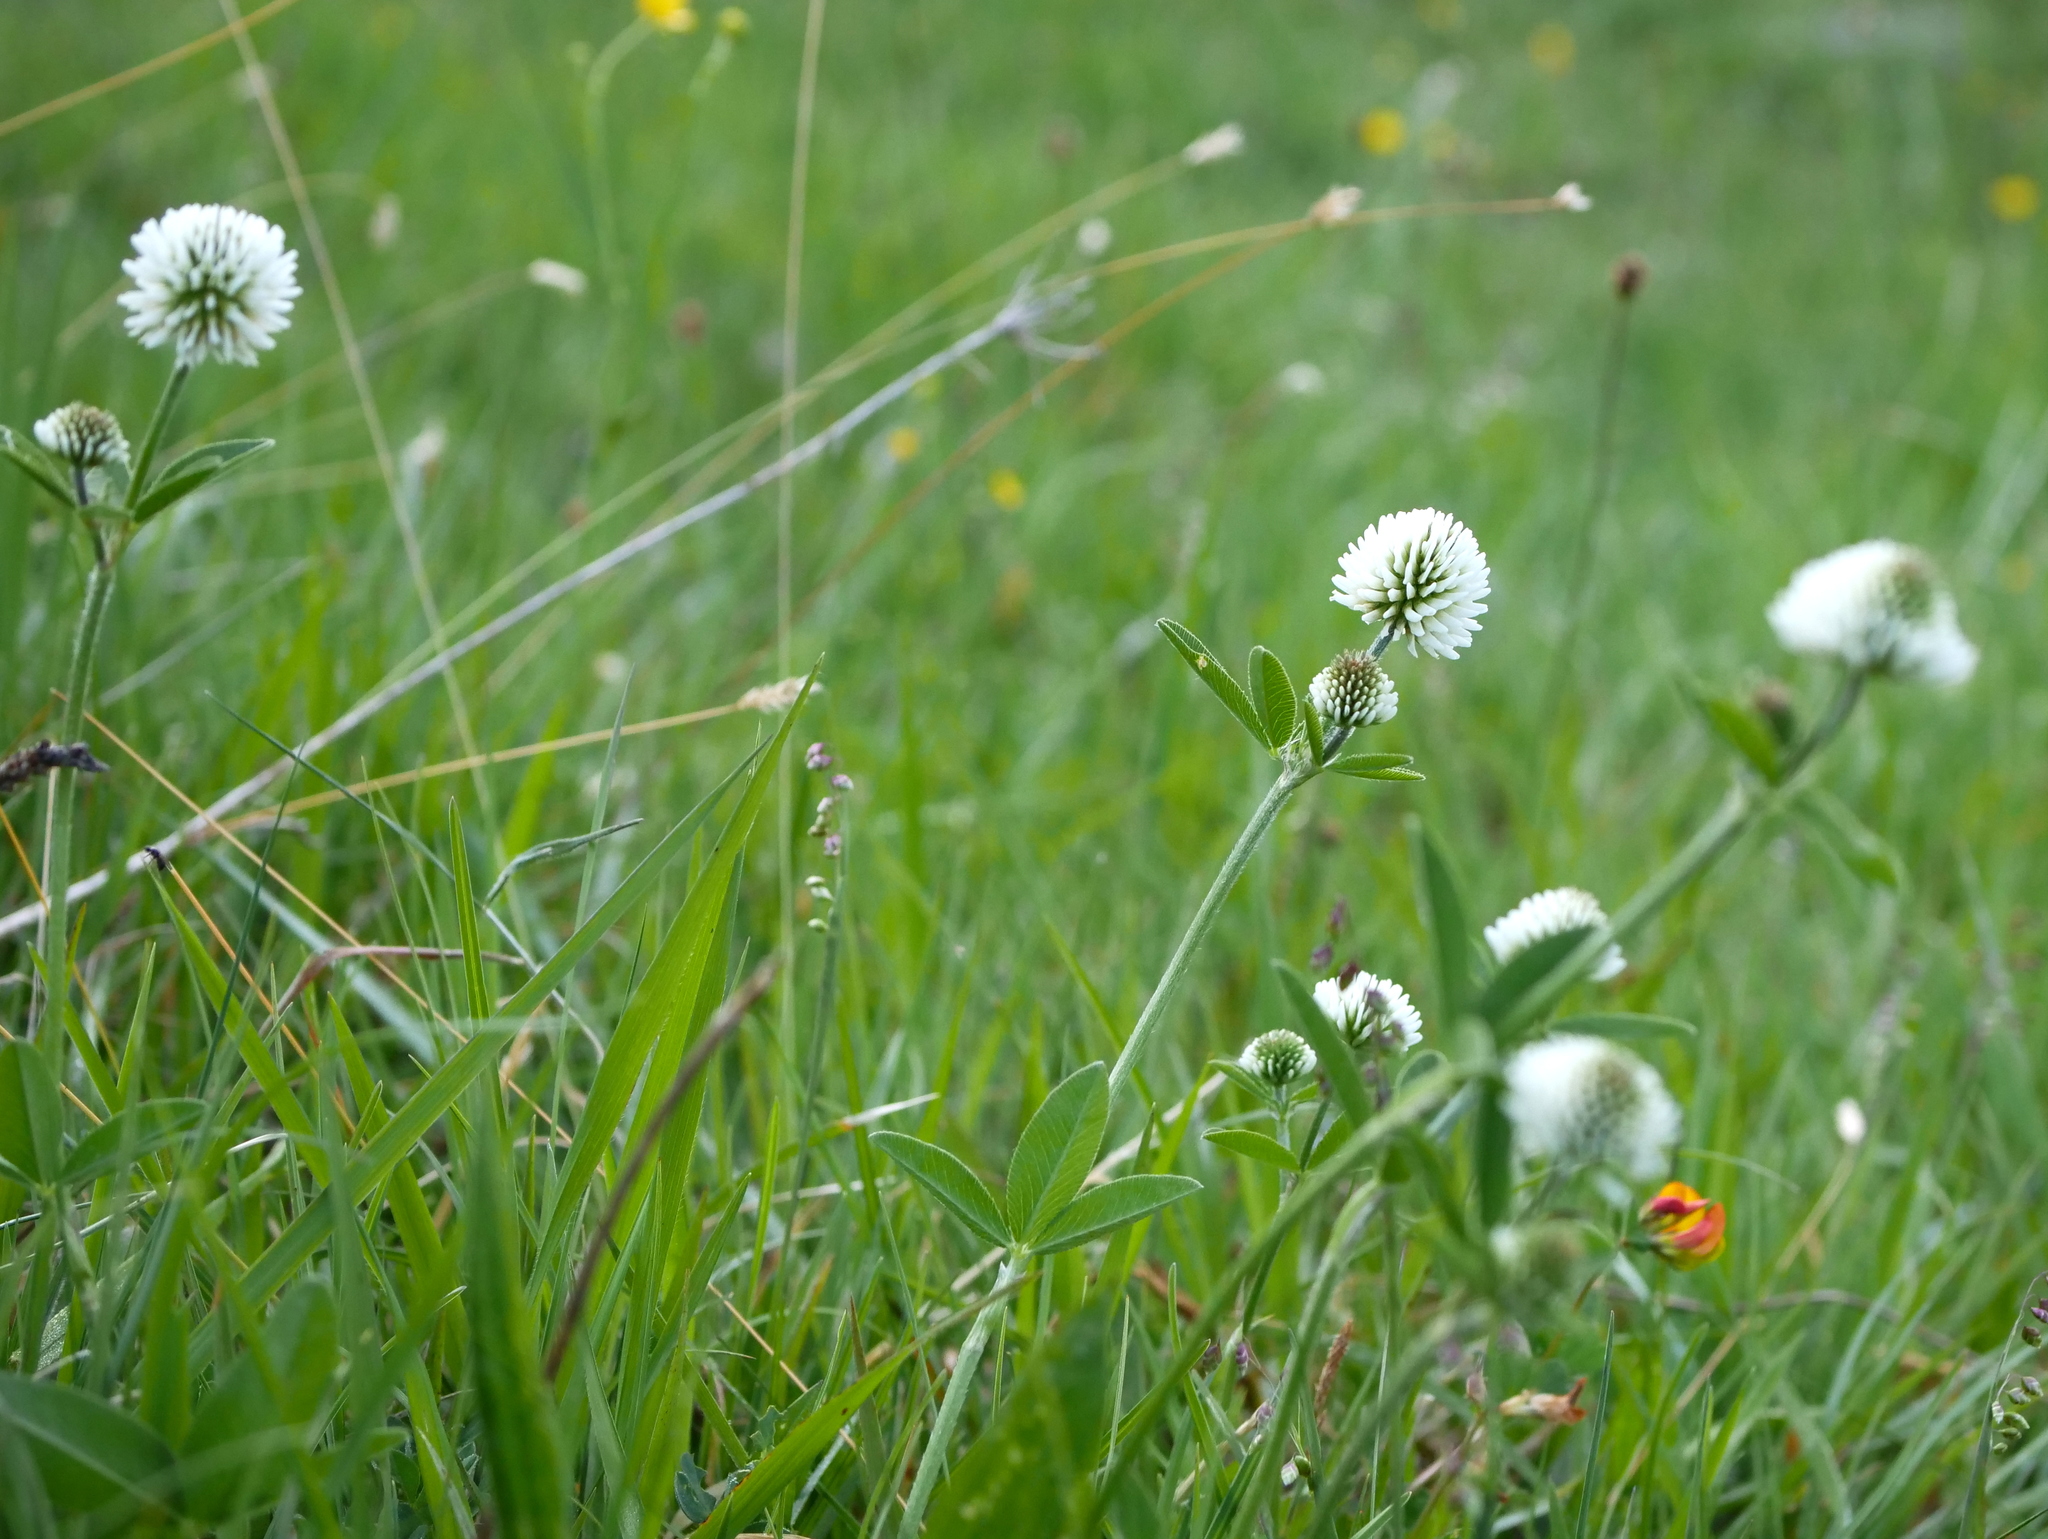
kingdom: Plantae
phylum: Tracheophyta
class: Magnoliopsida
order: Fabales
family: Fabaceae
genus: Trifolium
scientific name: Trifolium montanum
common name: Mountain clover
